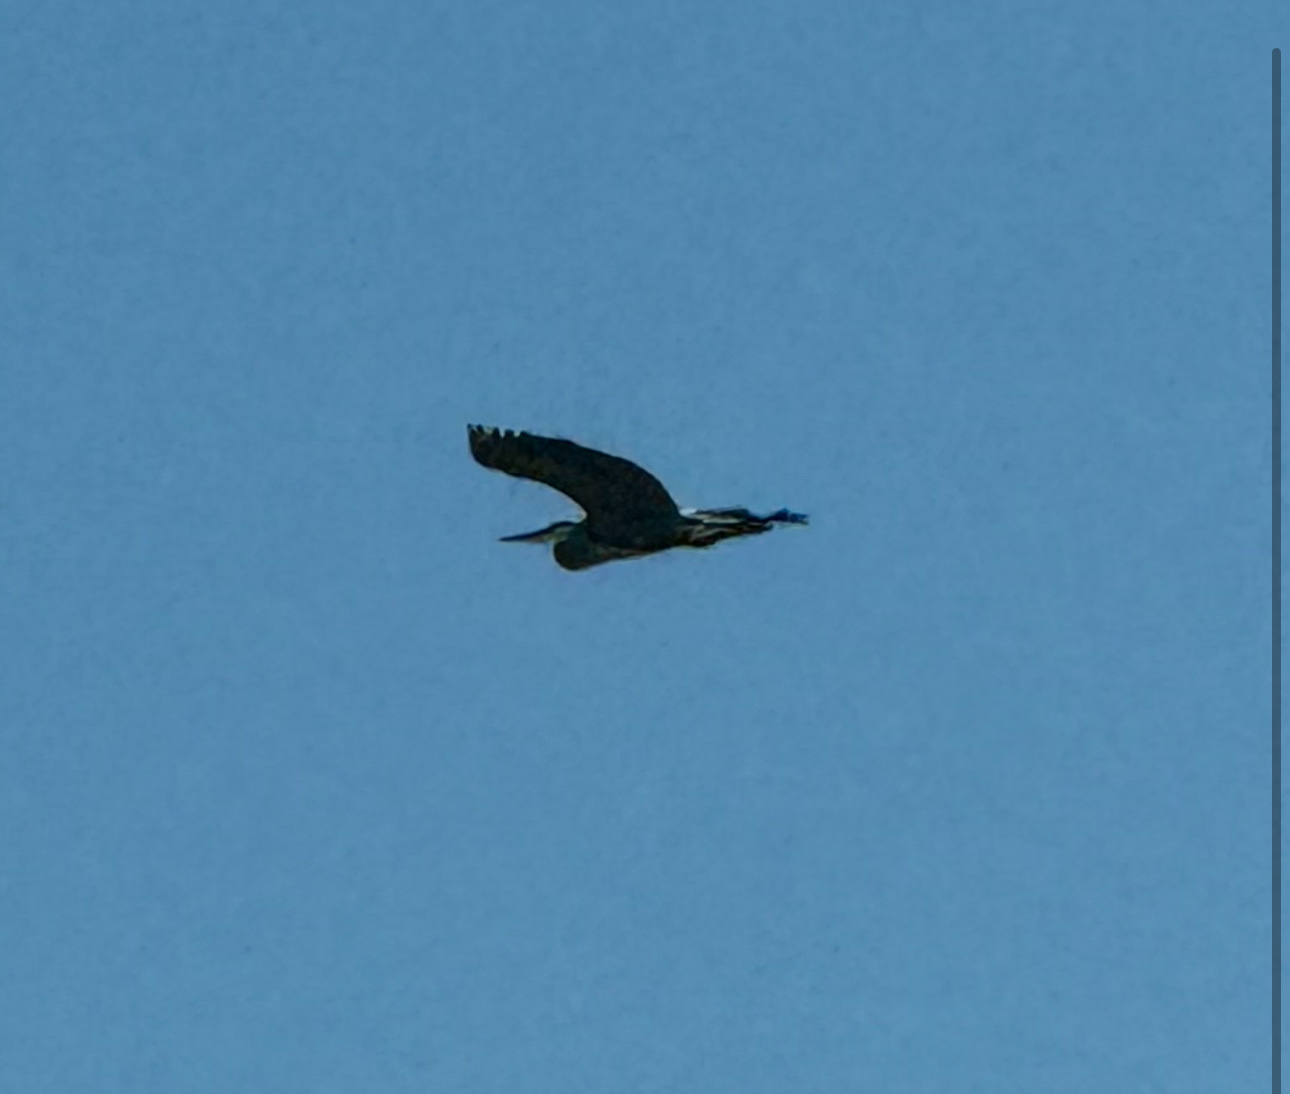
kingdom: Animalia
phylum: Chordata
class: Aves
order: Pelecaniformes
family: Ardeidae
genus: Ardea
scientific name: Ardea herodias
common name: Great blue heron
